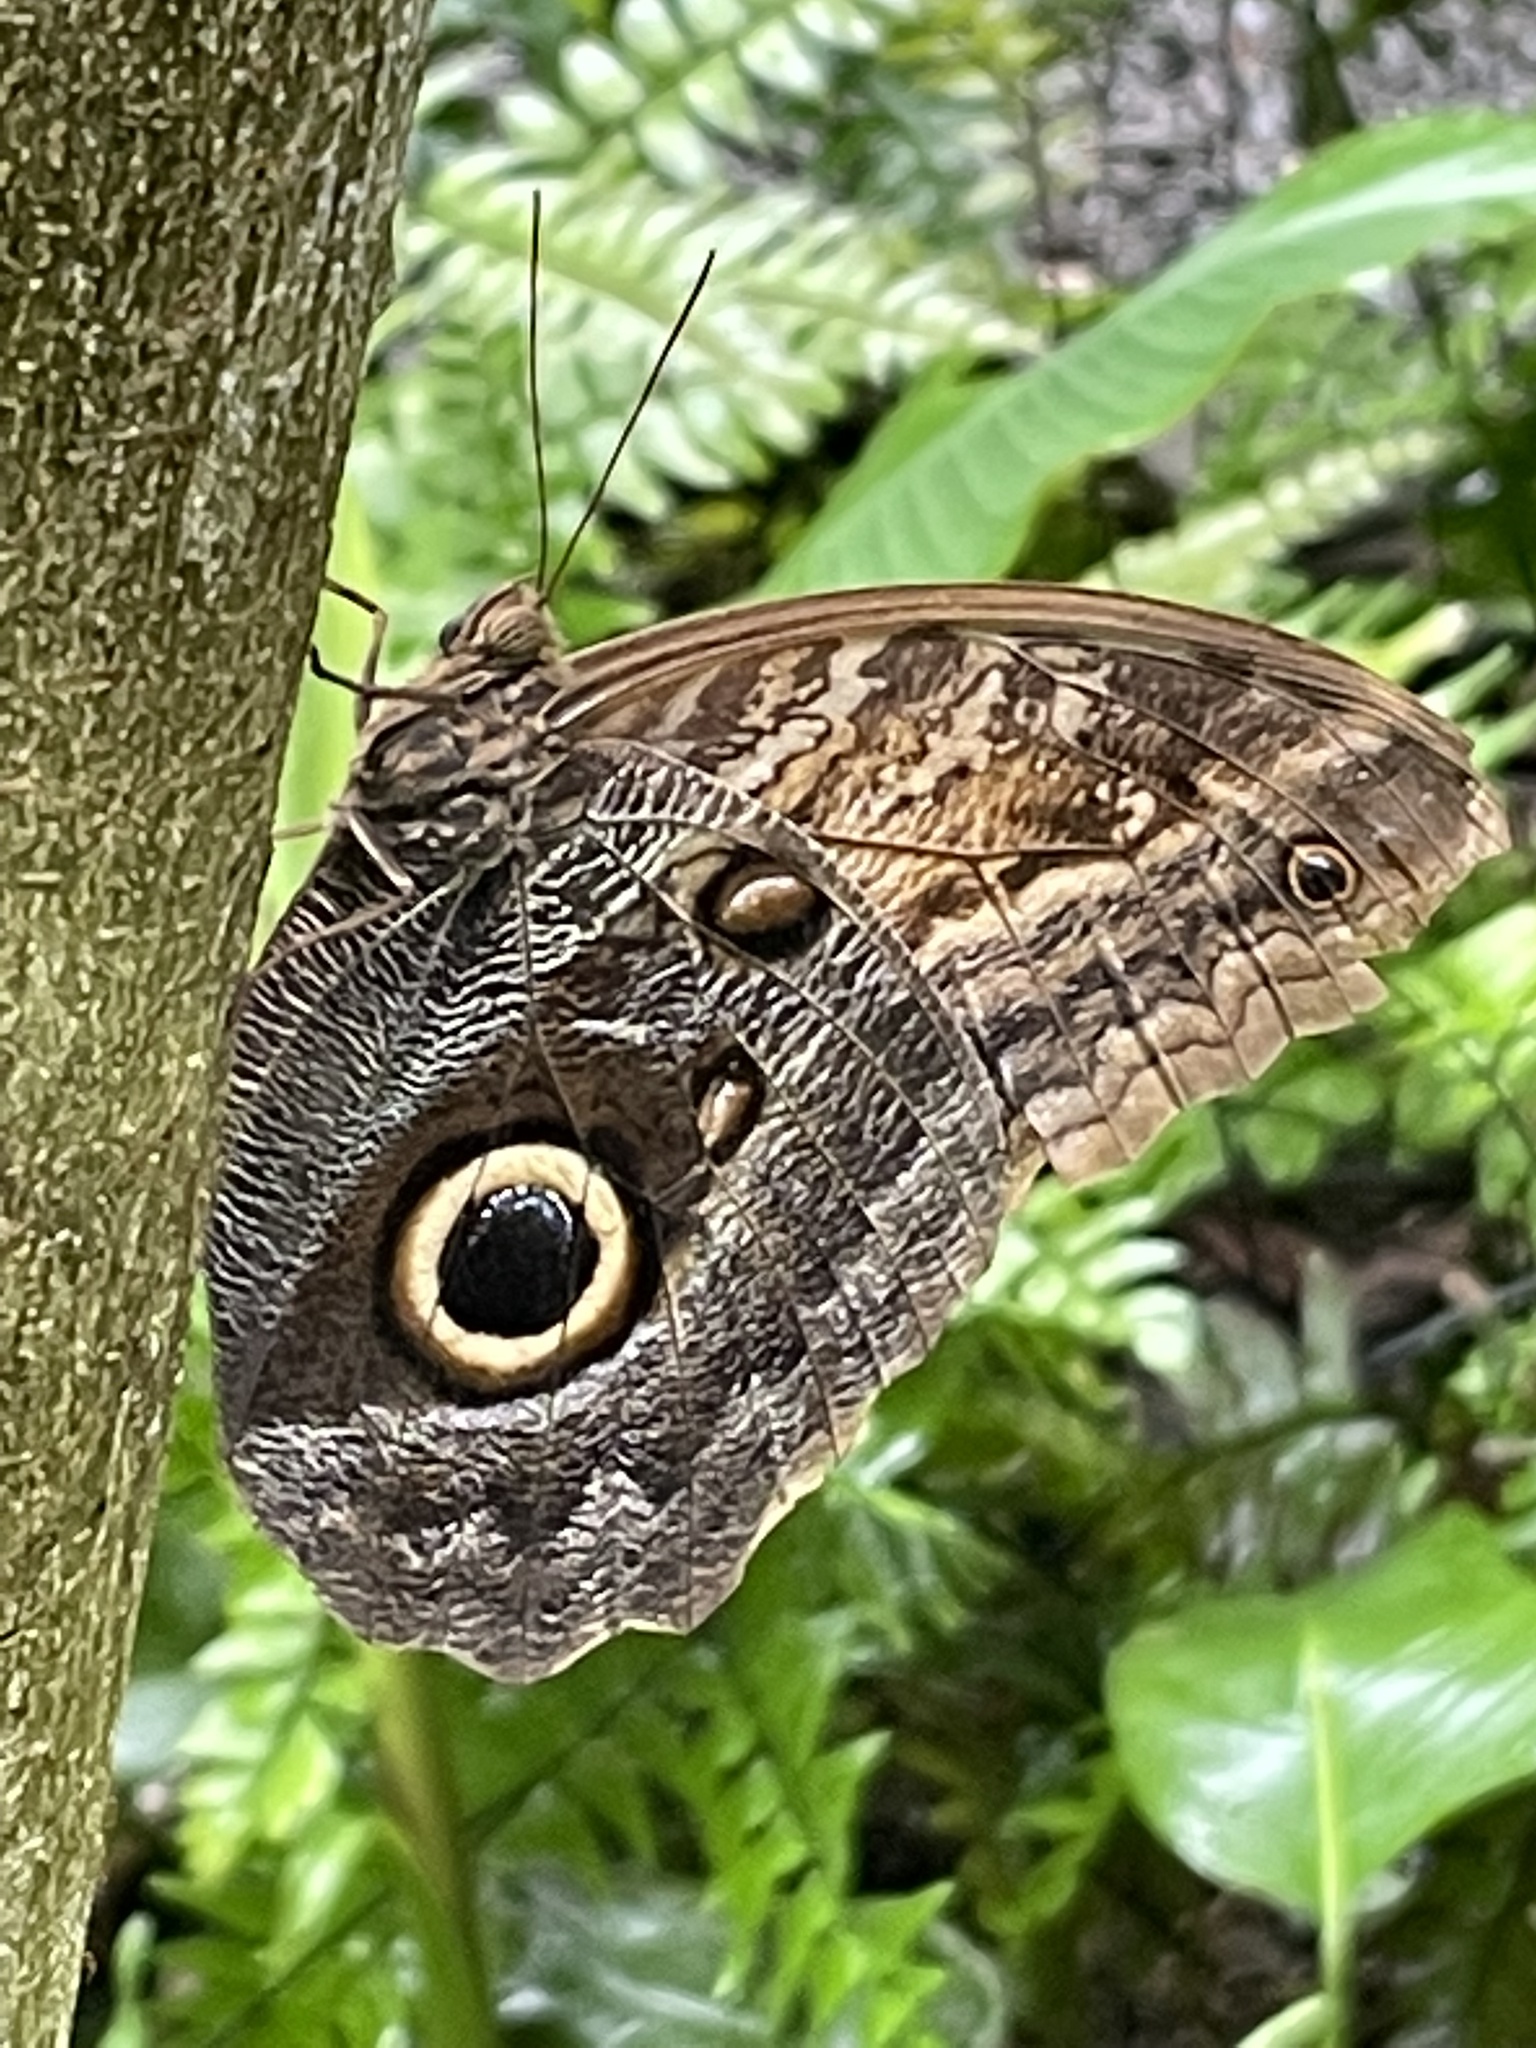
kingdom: Animalia
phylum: Arthropoda
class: Insecta
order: Lepidoptera
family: Nymphalidae
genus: Caligo
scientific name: Caligo telamonius
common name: Pale owl-butterfly
